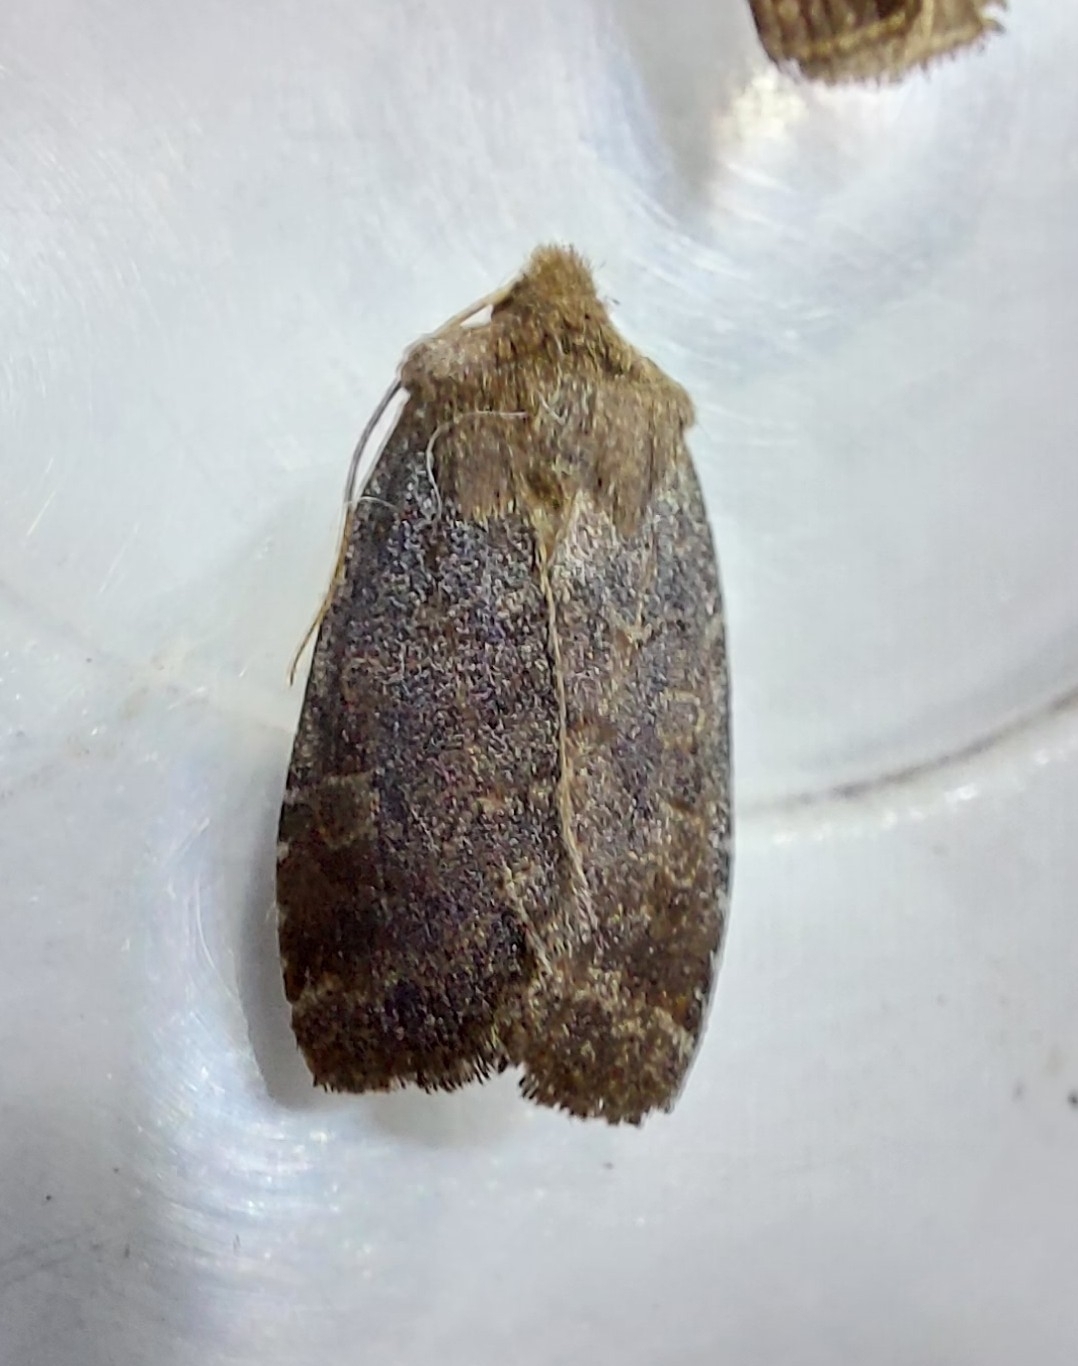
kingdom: Animalia
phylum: Arthropoda
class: Insecta
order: Lepidoptera
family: Noctuidae
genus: Conistra
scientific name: Conistra vaccinii
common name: Chestnut
